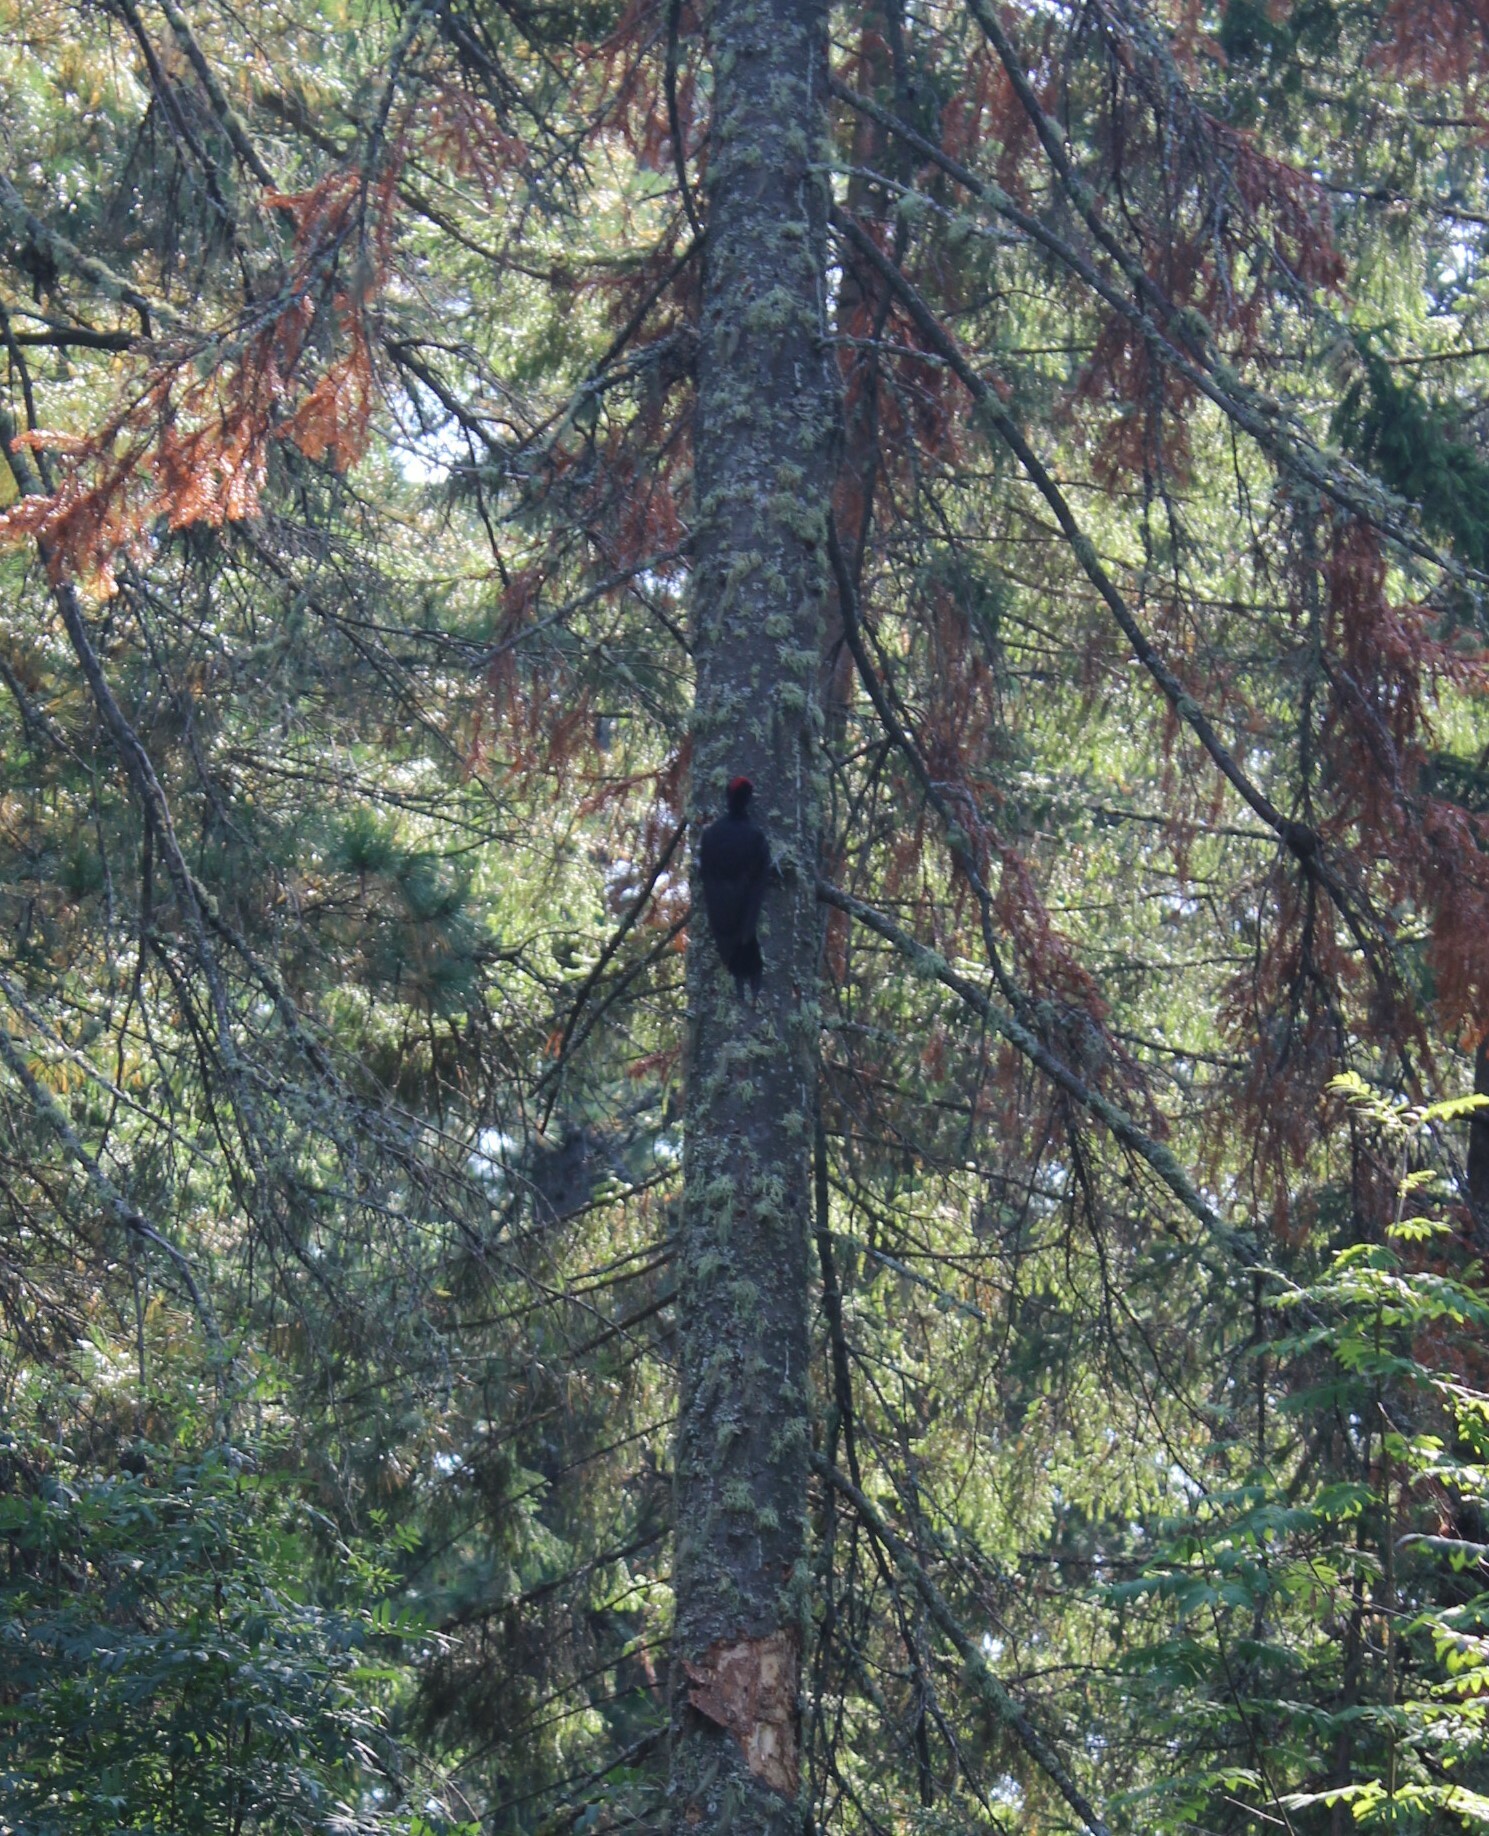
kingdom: Animalia
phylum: Chordata
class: Aves
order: Piciformes
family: Picidae
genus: Dryocopus
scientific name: Dryocopus martius
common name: Black woodpecker
